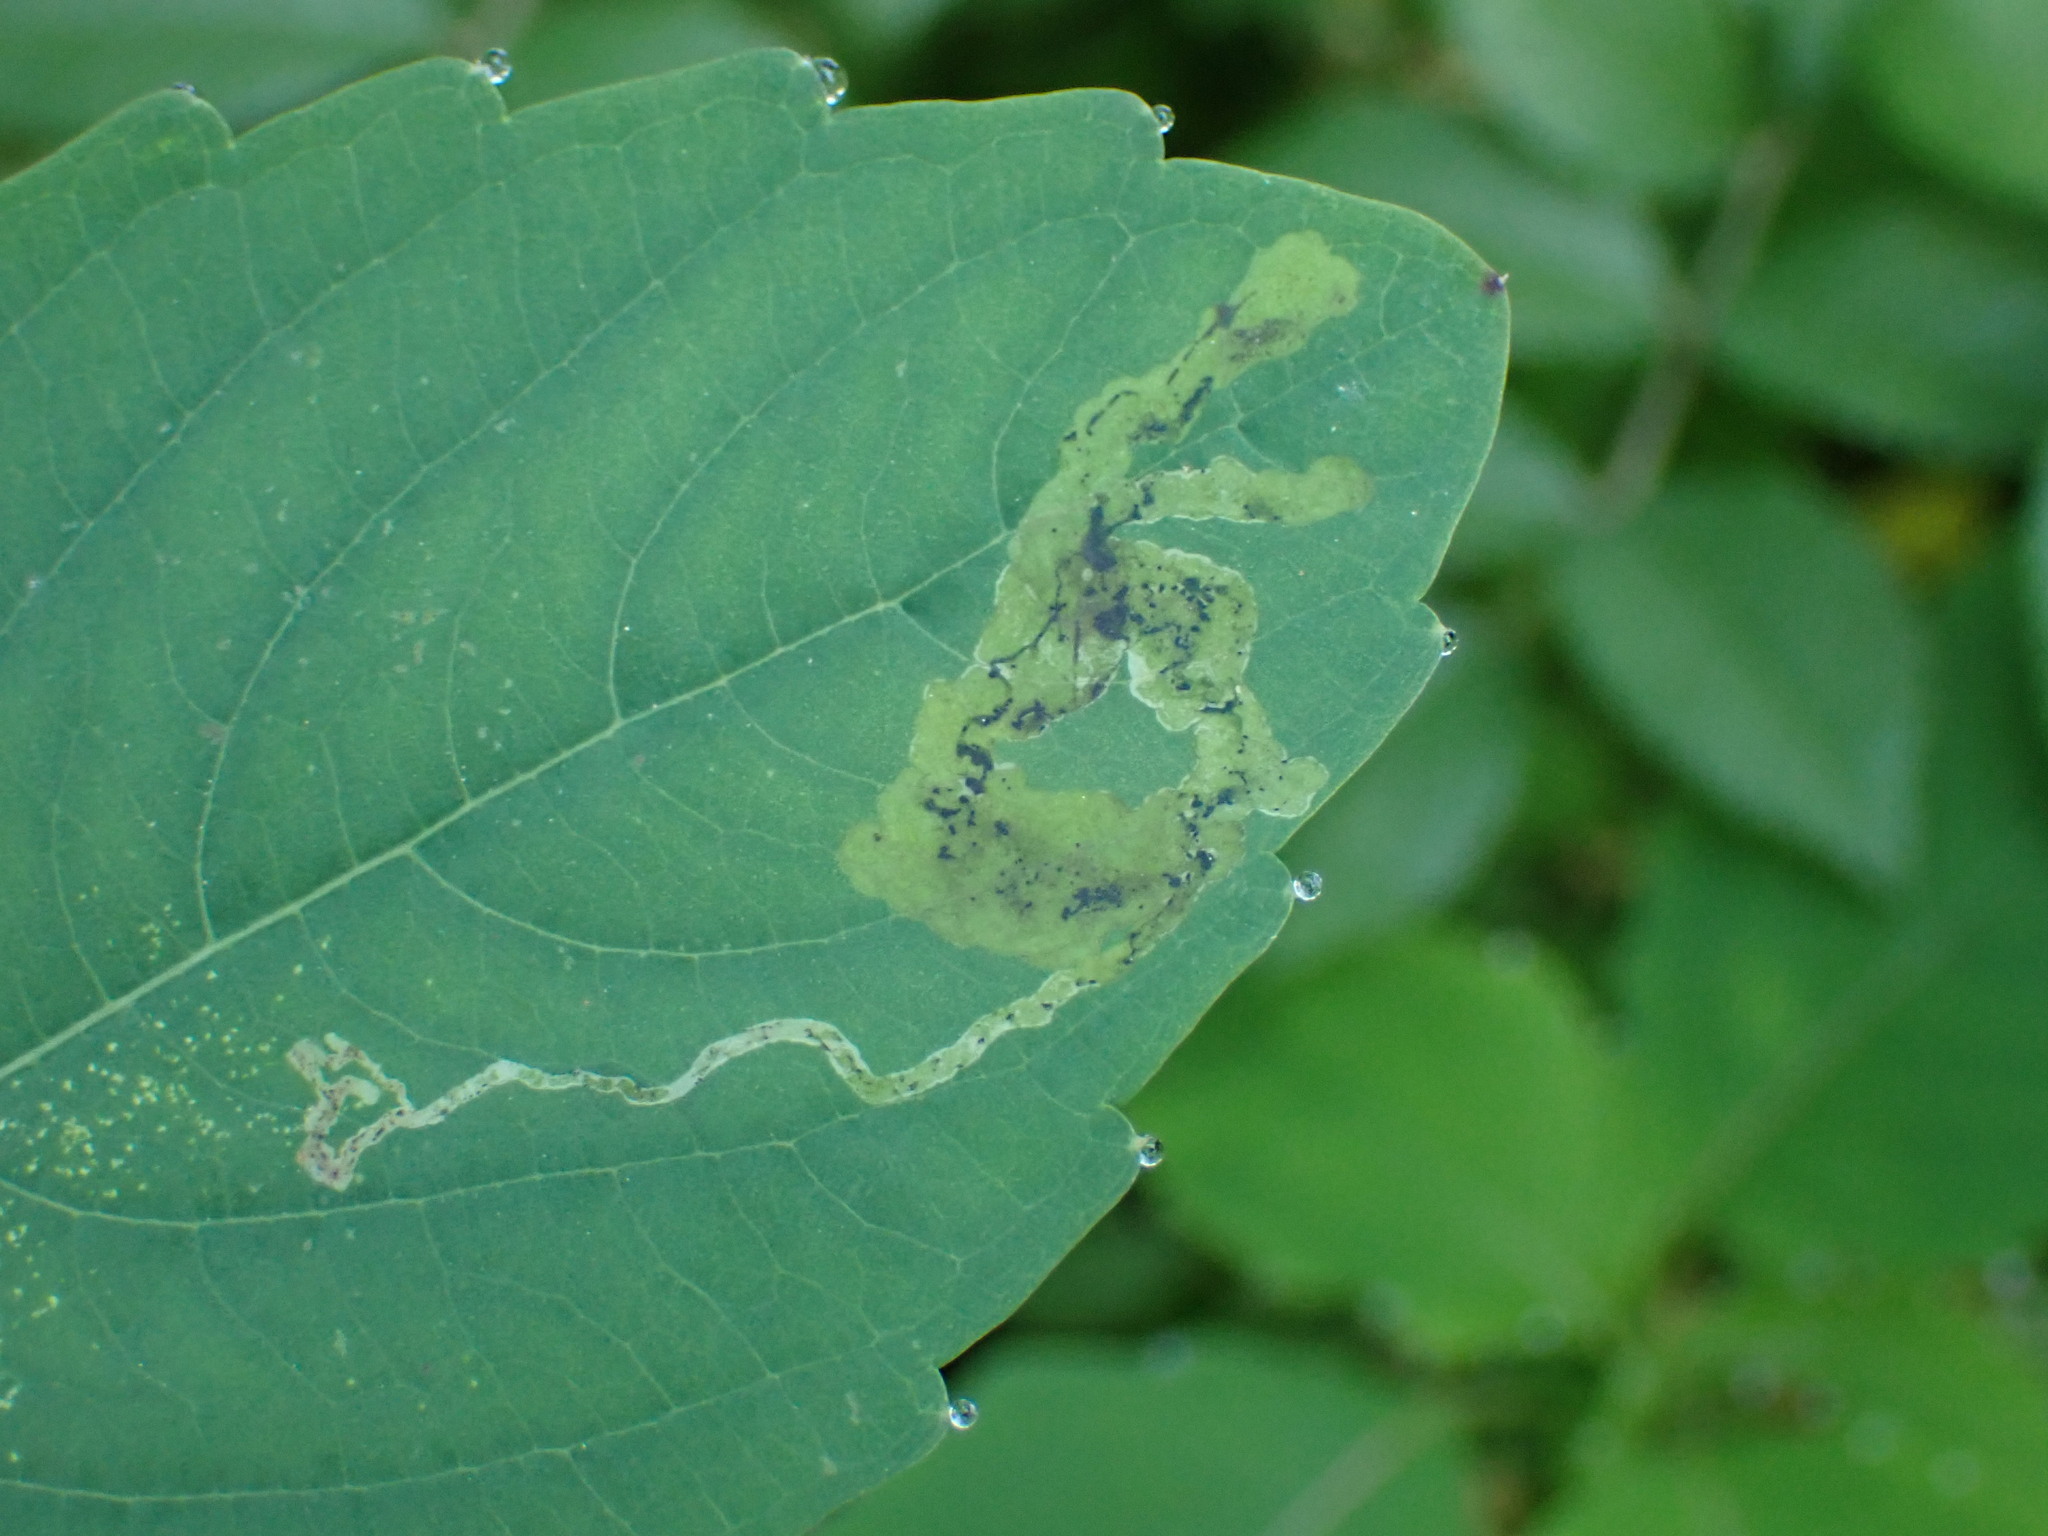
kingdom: Animalia
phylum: Arthropoda
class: Insecta
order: Diptera
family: Agromyzidae
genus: Phytoliriomyza
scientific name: Phytoliriomyza melampyga
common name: Jewelweed leaf-miner fly
